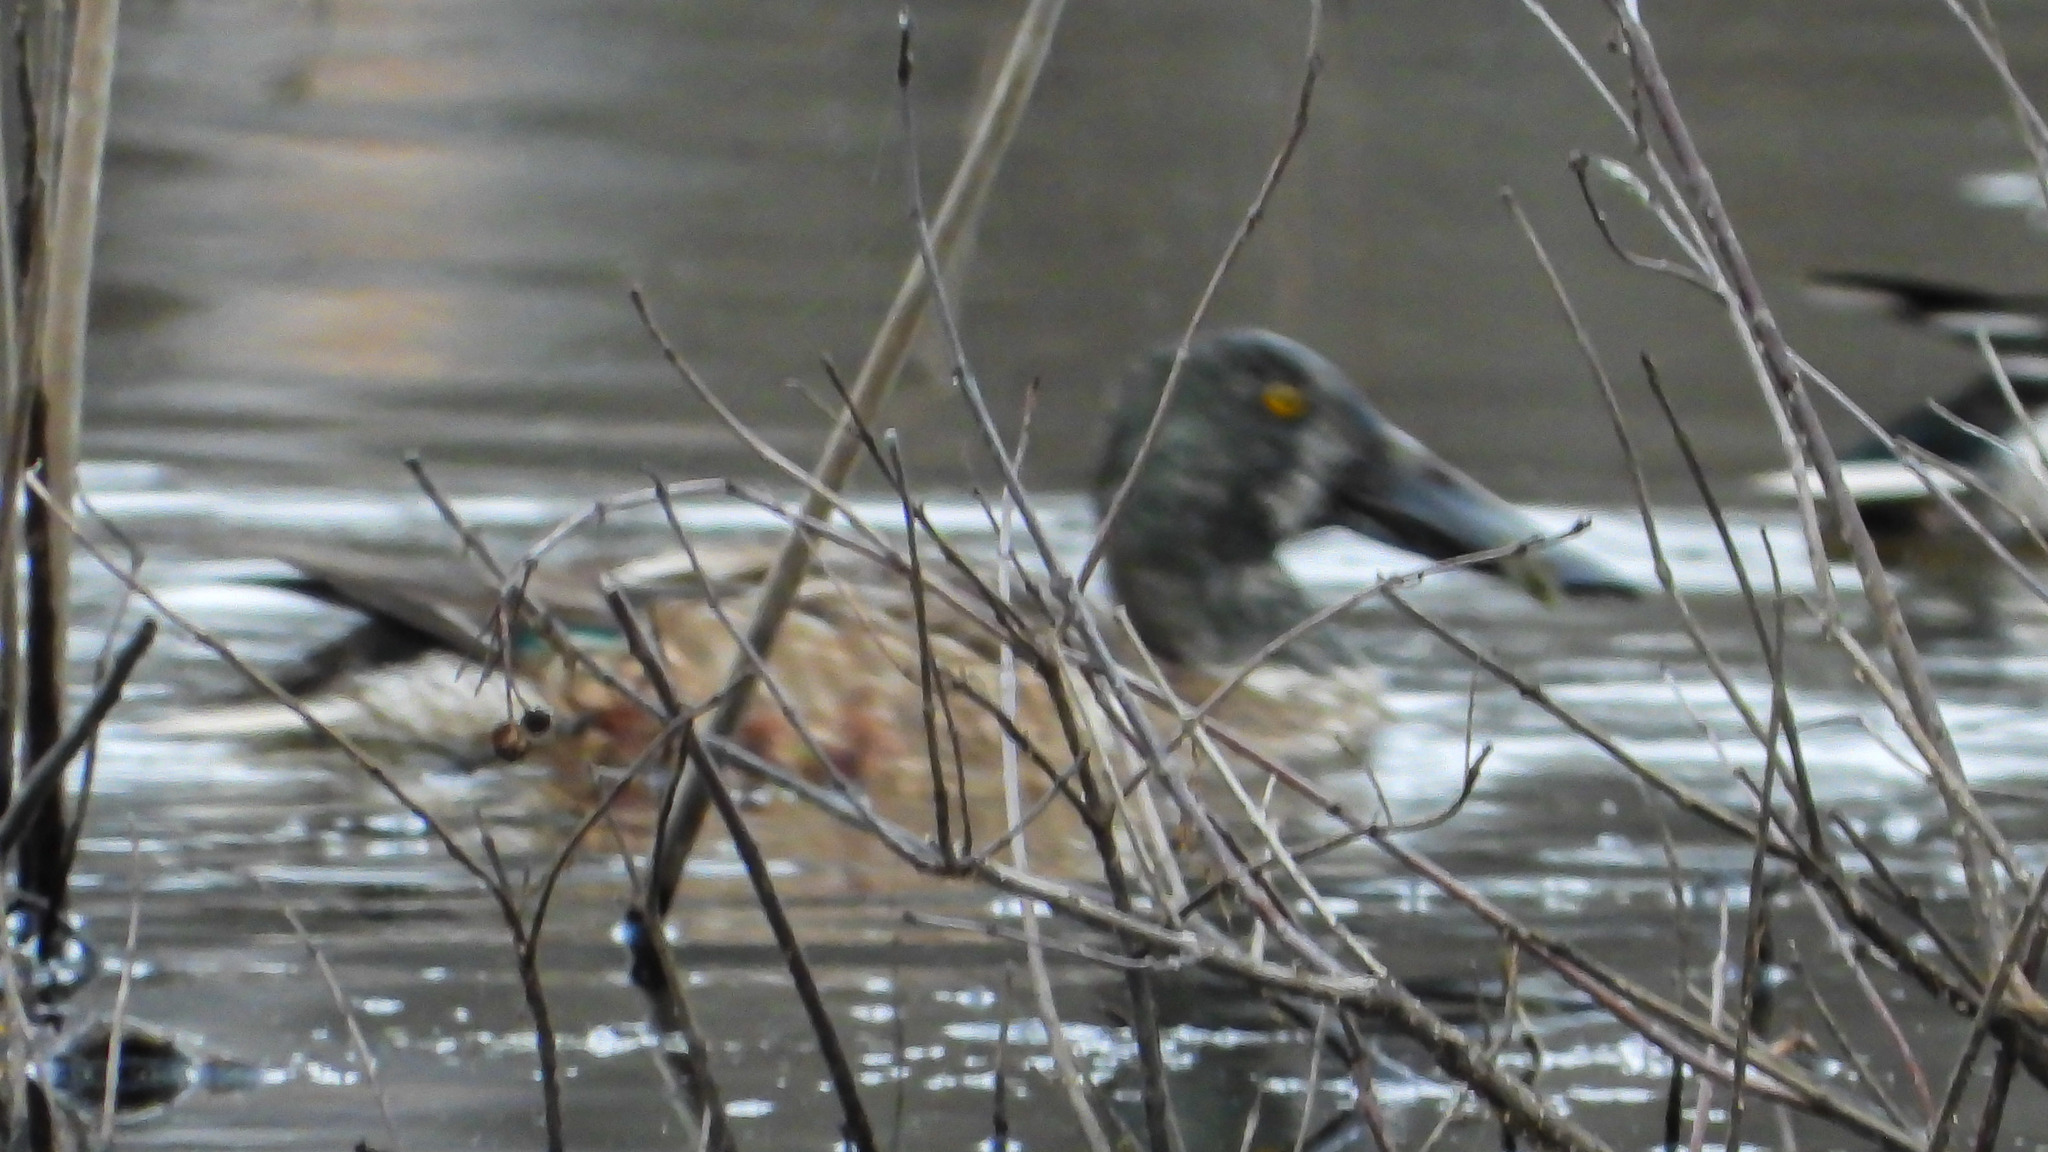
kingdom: Animalia
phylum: Chordata
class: Aves
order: Anseriformes
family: Anatidae
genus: Spatula
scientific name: Spatula clypeata
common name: Northern shoveler
